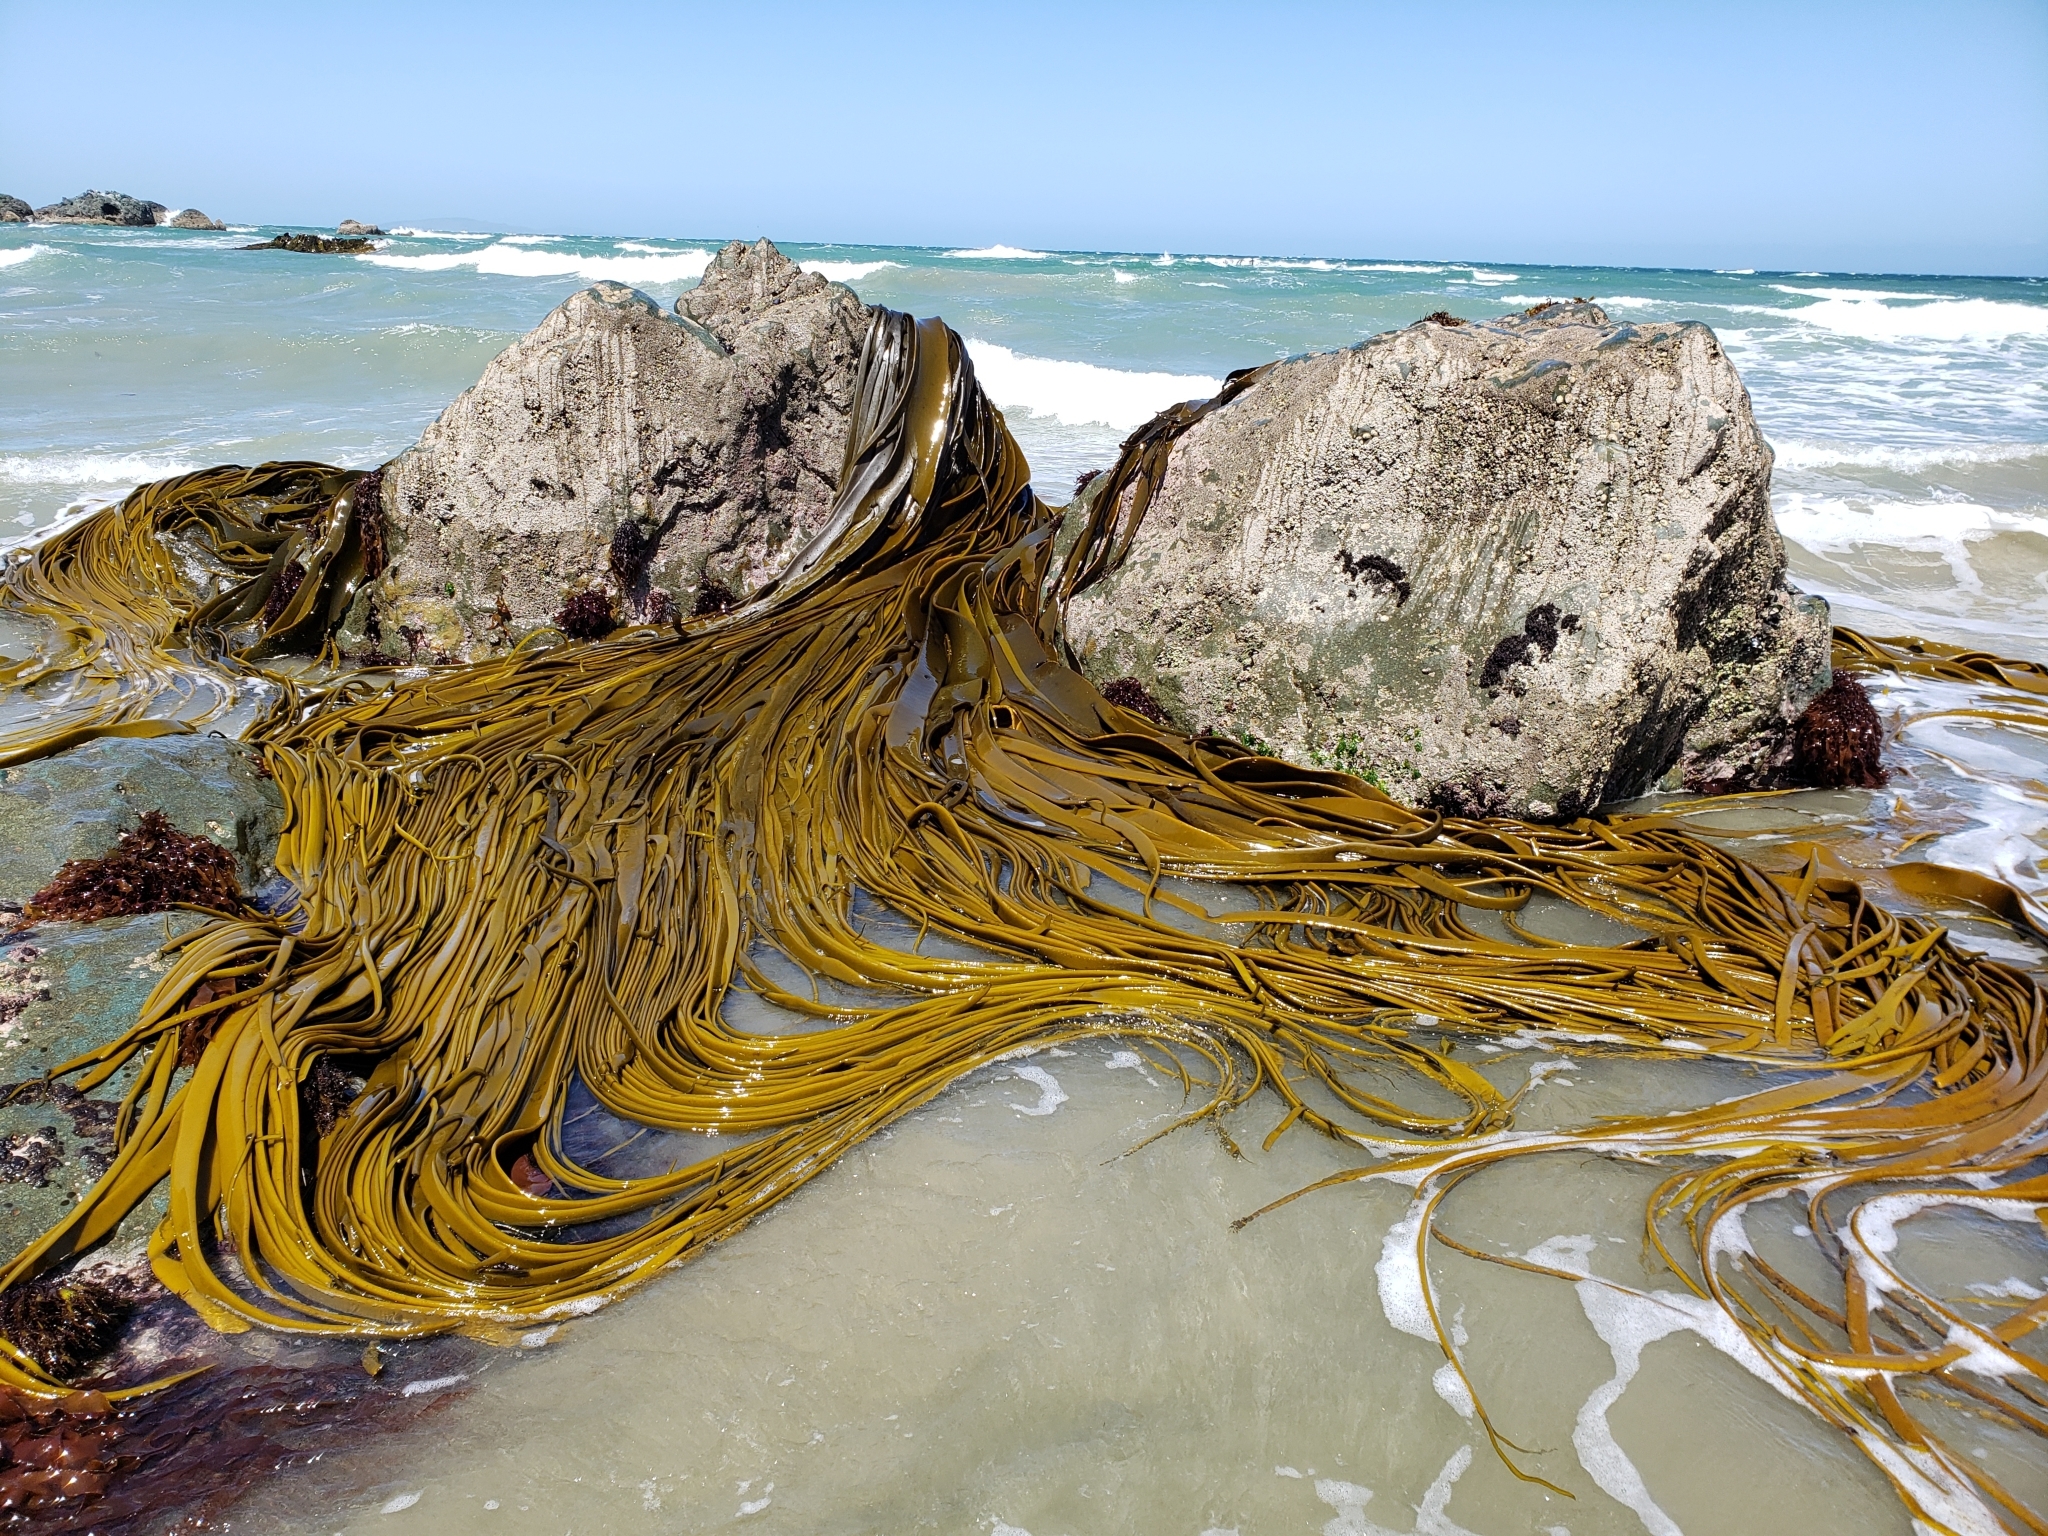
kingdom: Chromista
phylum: Ochrophyta
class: Phaeophyceae
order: Fucales
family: Durvillaeaceae
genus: Durvillaea
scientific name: Durvillaea antarctica
